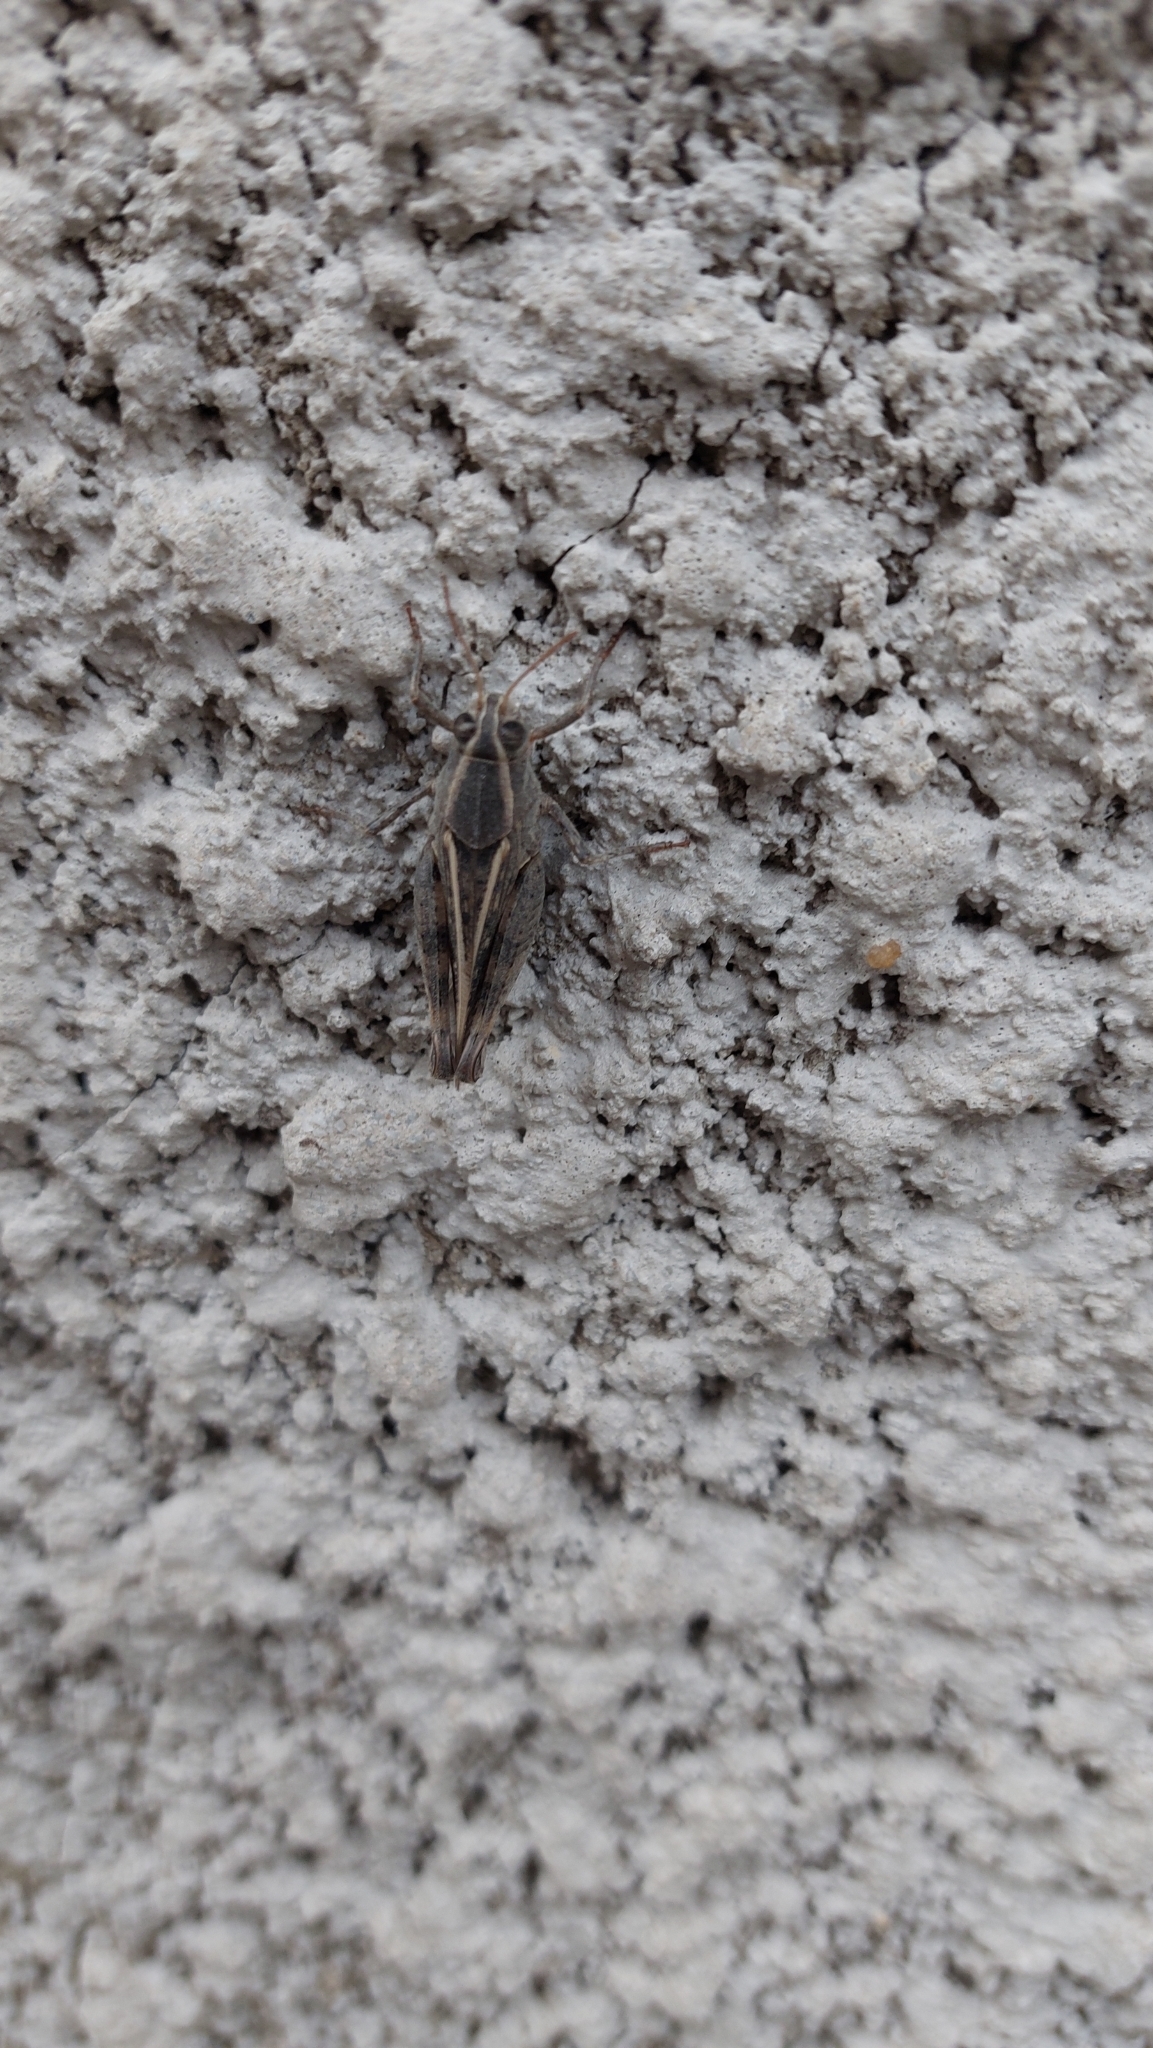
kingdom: Animalia
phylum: Arthropoda
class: Insecta
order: Orthoptera
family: Acrididae
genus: Calliptamus
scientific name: Calliptamus italicus
